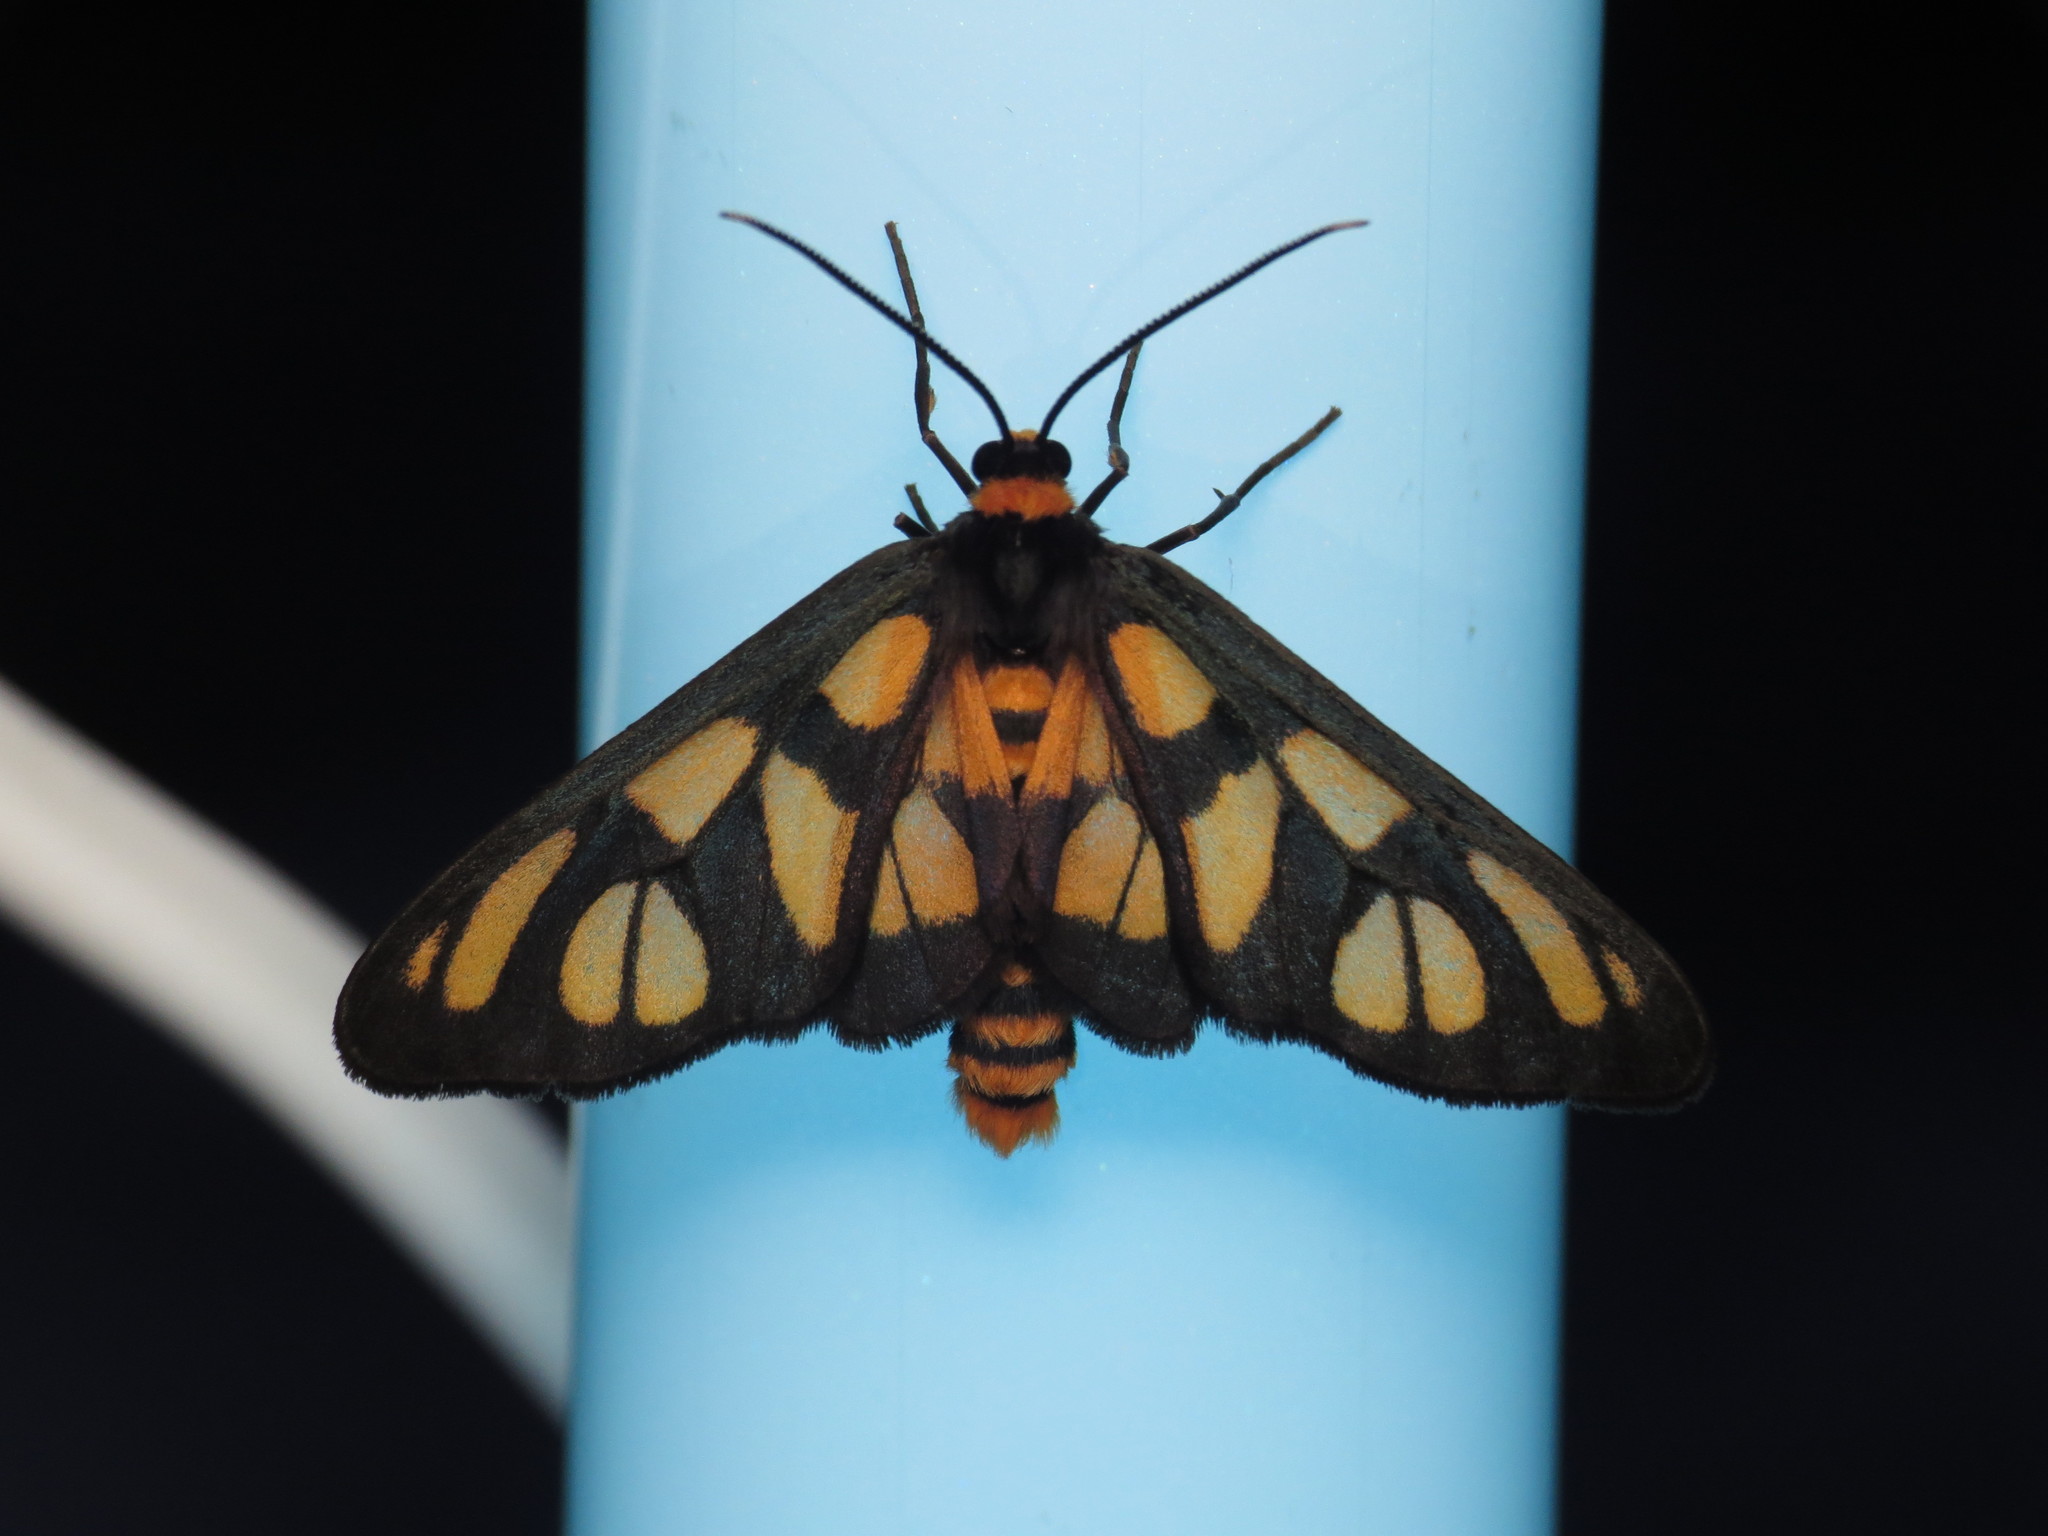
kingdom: Animalia
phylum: Arthropoda
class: Insecta
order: Lepidoptera
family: Erebidae
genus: Amata
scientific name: Amata trigonophora
